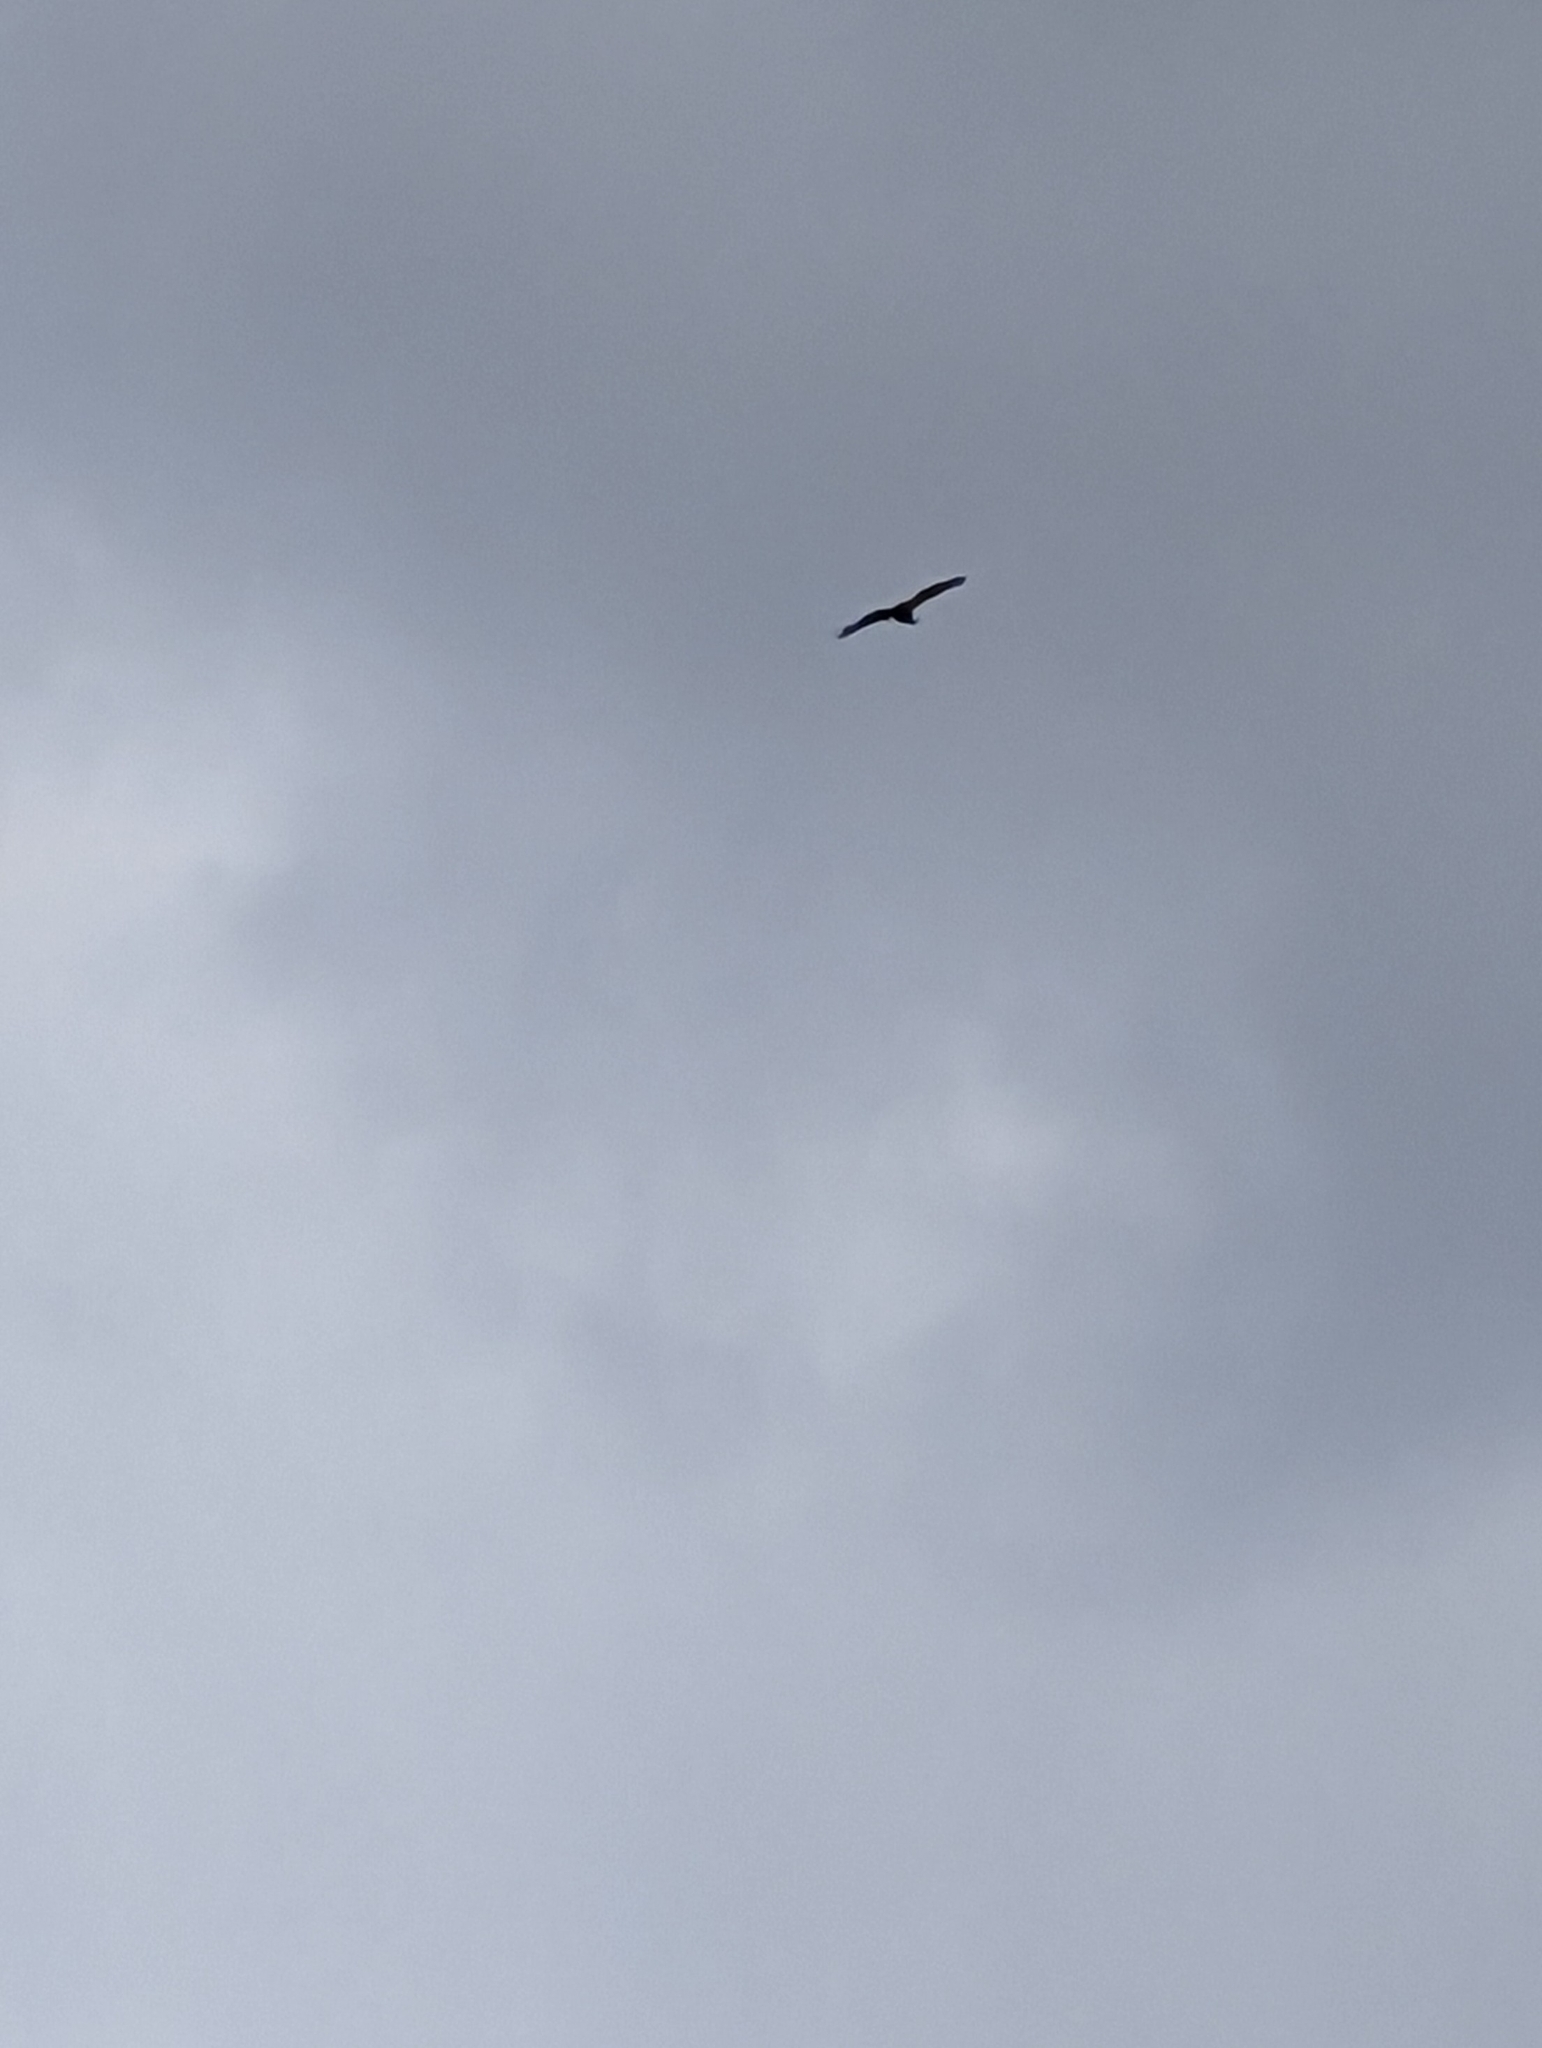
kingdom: Animalia
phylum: Chordata
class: Aves
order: Accipitriformes
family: Accipitridae
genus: Milvus
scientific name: Milvus milvus
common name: Red kite
